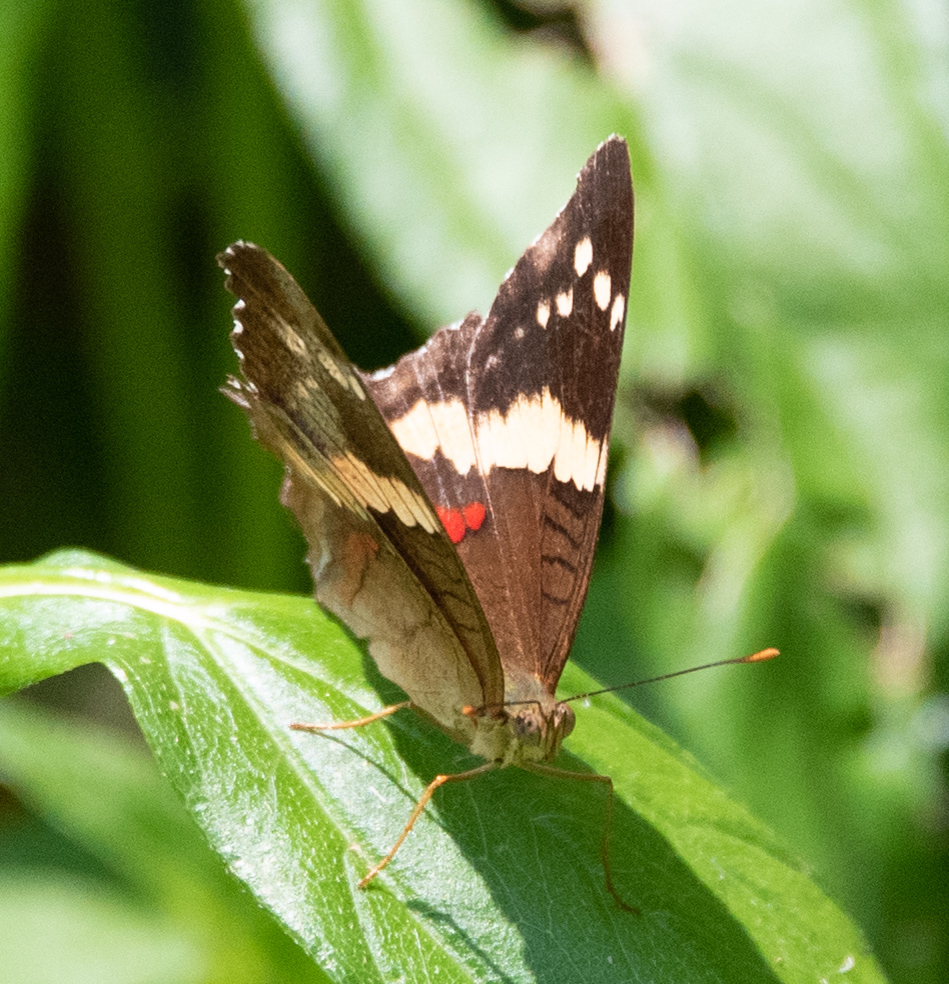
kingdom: Animalia
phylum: Arthropoda
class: Insecta
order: Lepidoptera
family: Nymphalidae
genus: Anartia
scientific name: Anartia fatima
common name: Banded peacock
